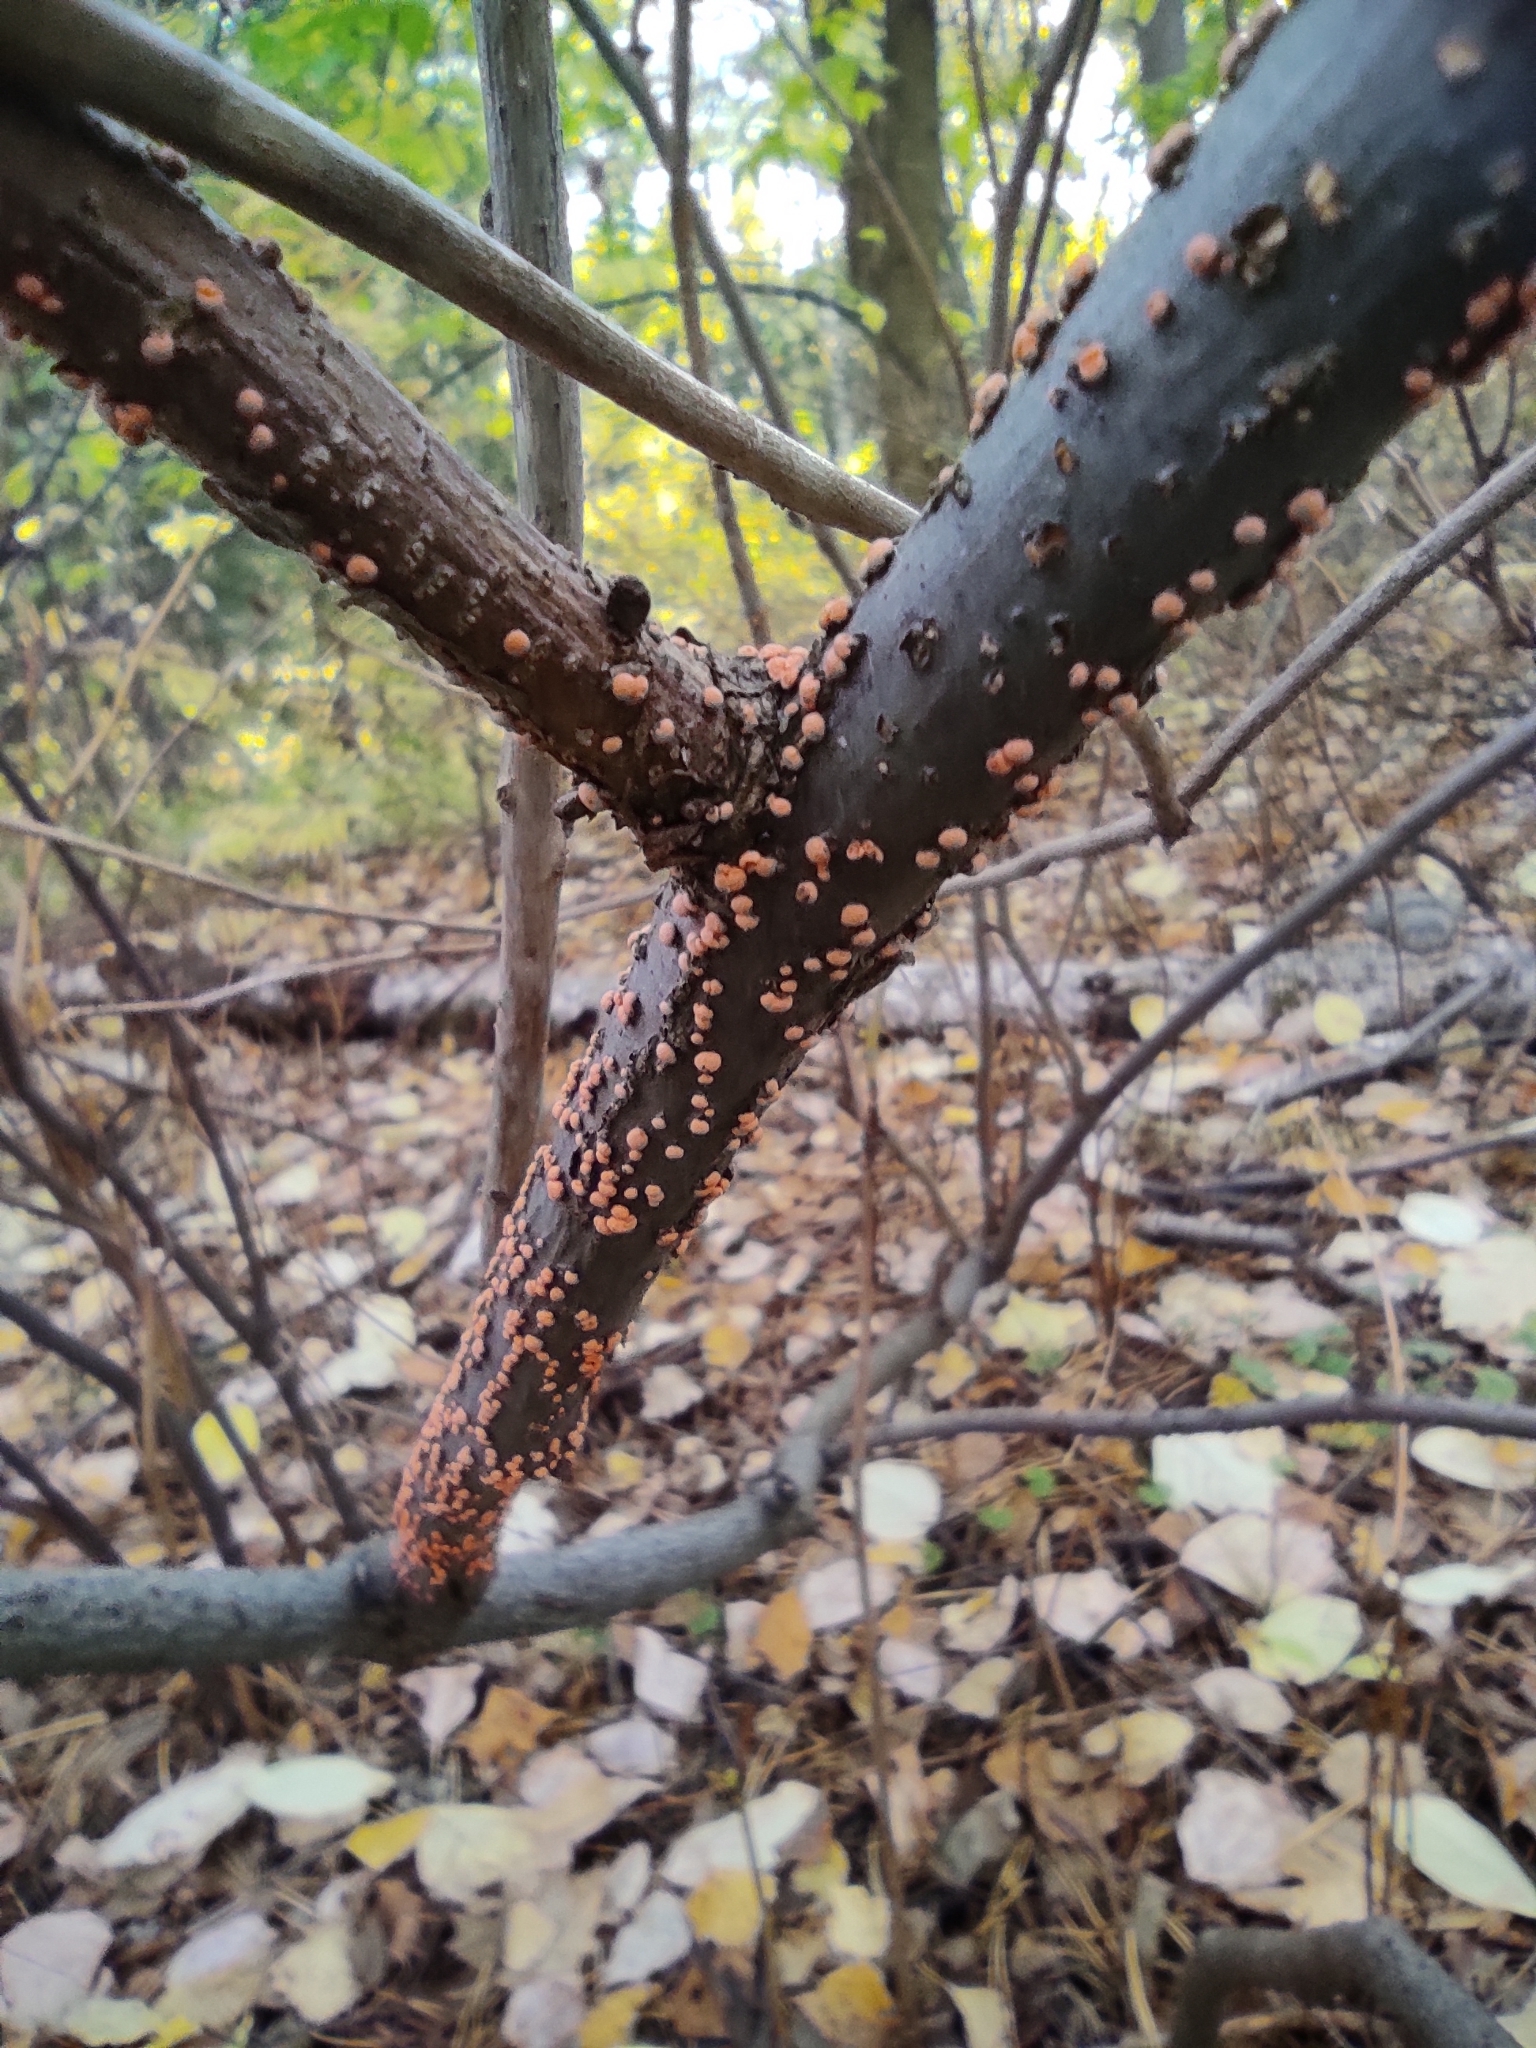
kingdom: Fungi
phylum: Ascomycota
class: Sordariomycetes
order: Hypocreales
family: Nectriaceae
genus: Nectria
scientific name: Nectria cinnabarina
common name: Coral spot
